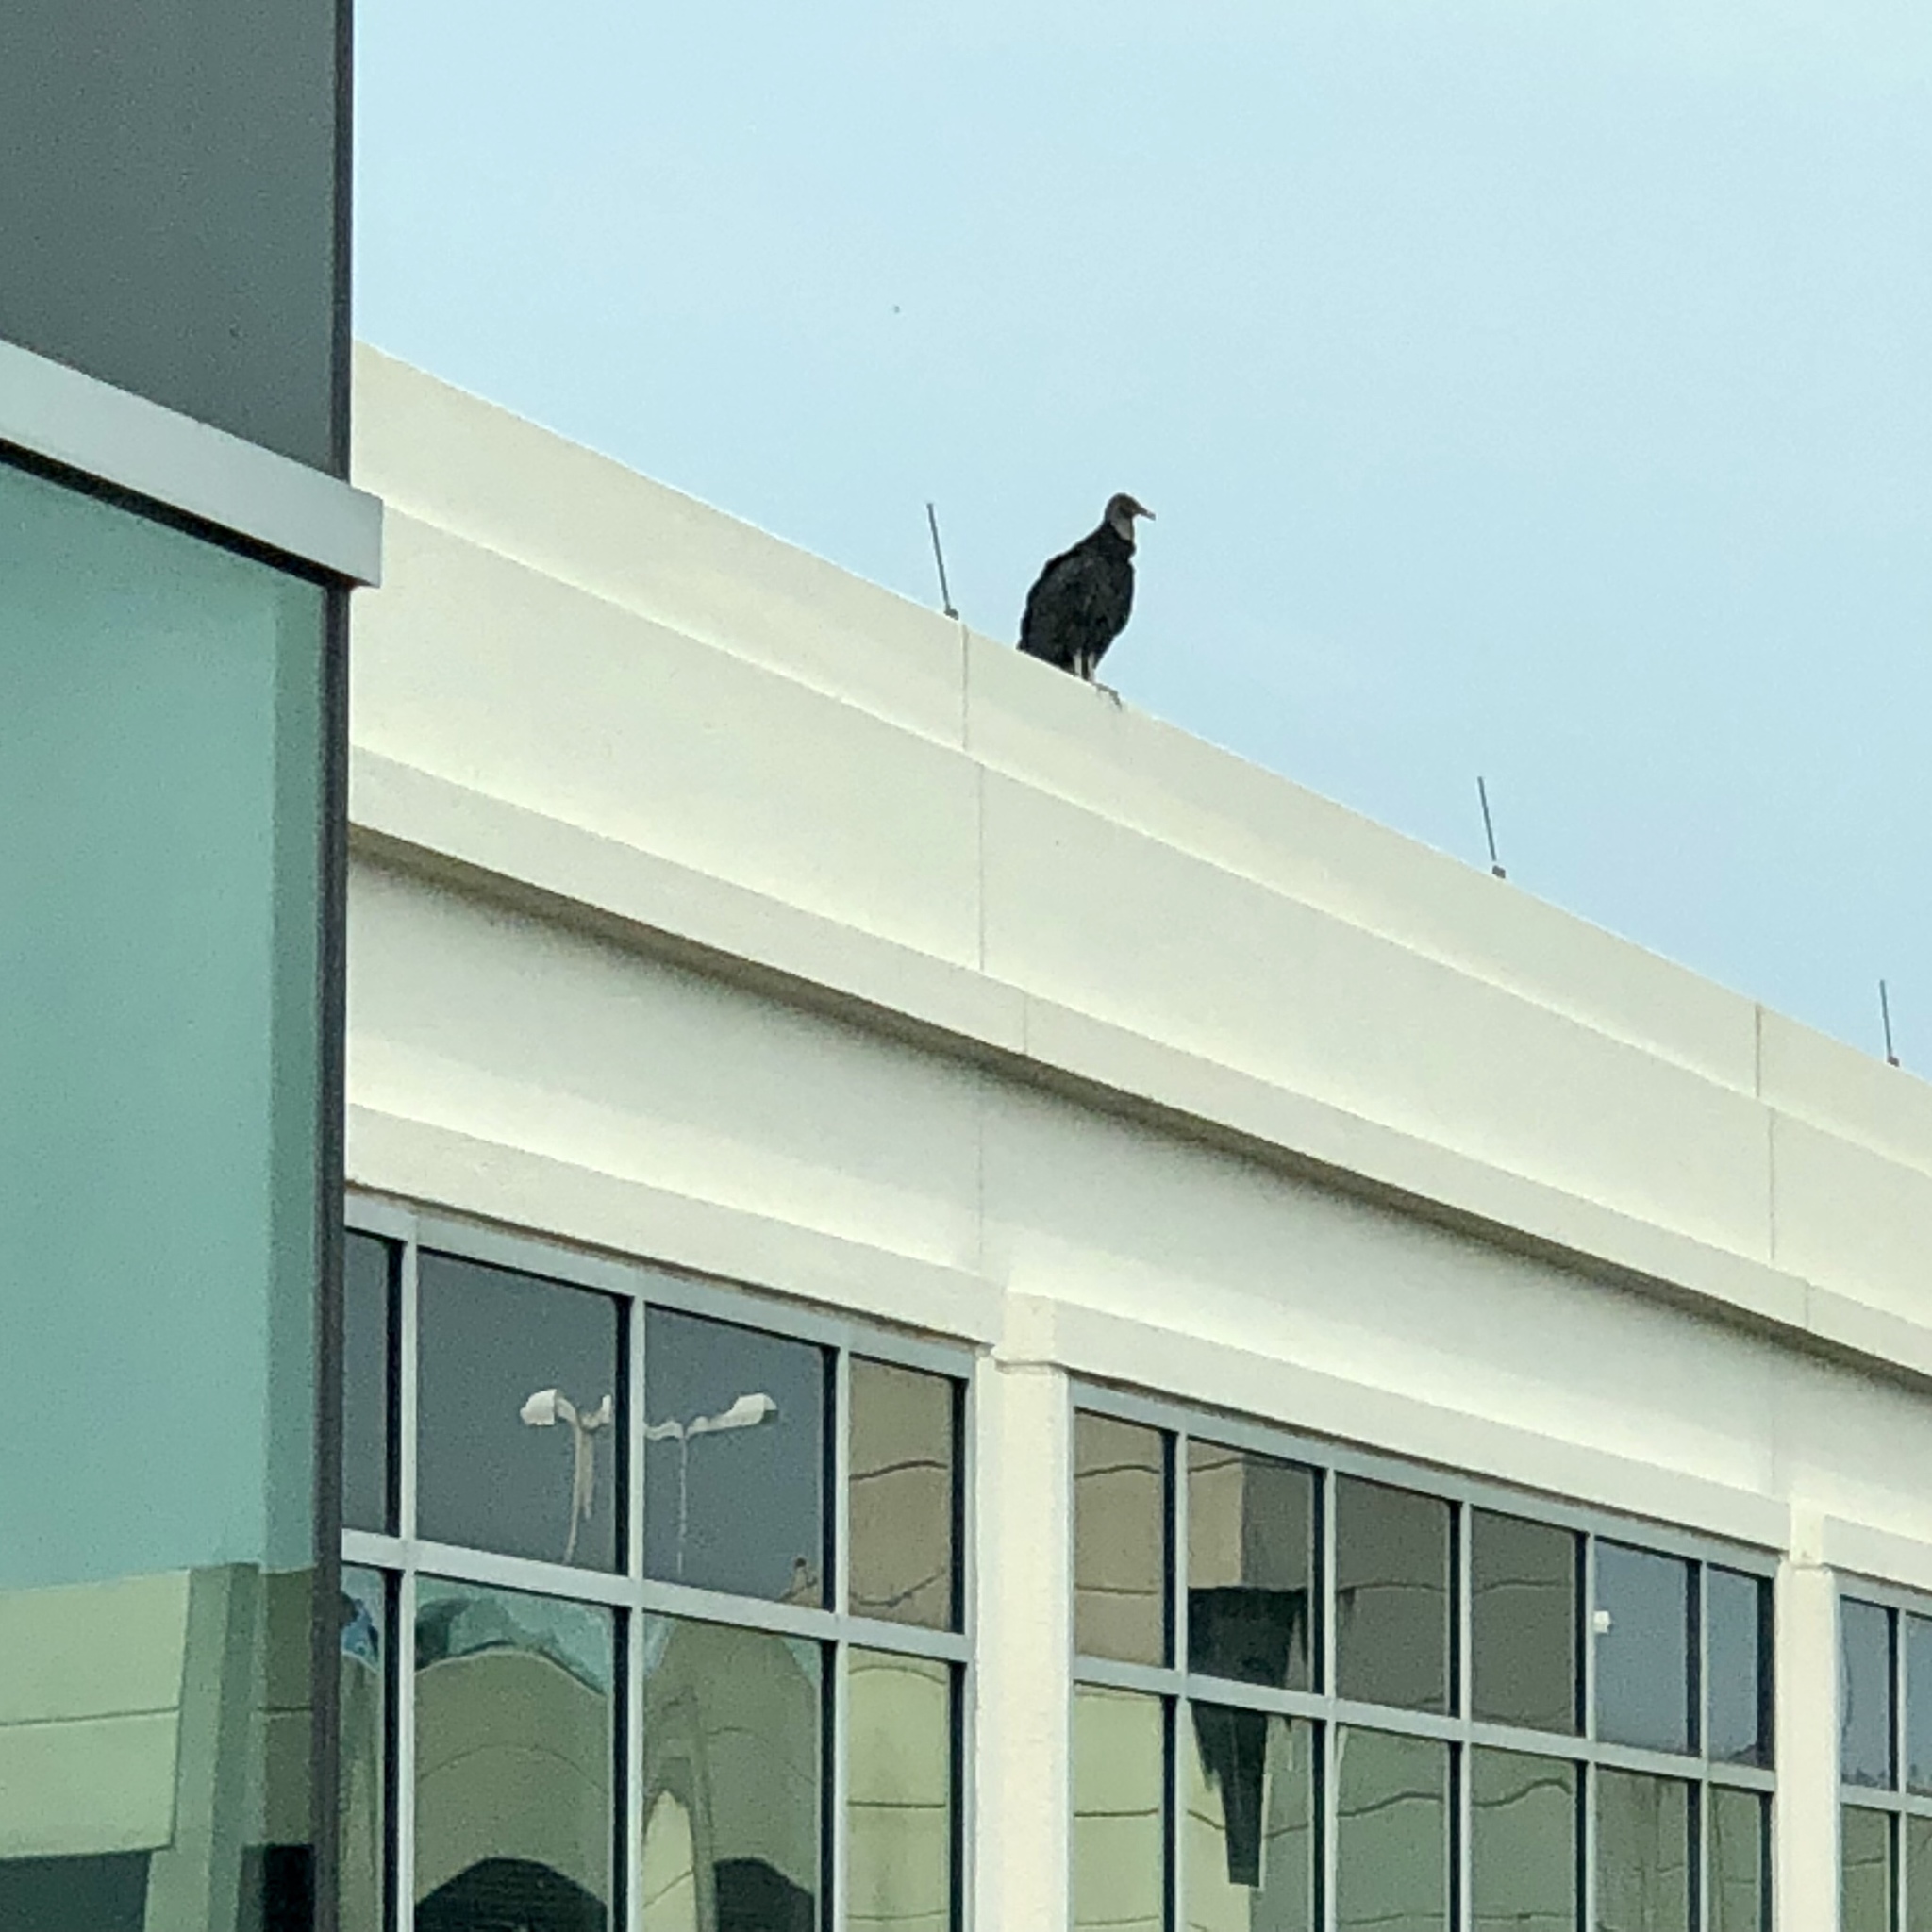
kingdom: Animalia
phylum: Chordata
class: Aves
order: Accipitriformes
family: Cathartidae
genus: Coragyps
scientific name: Coragyps atratus
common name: Black vulture
